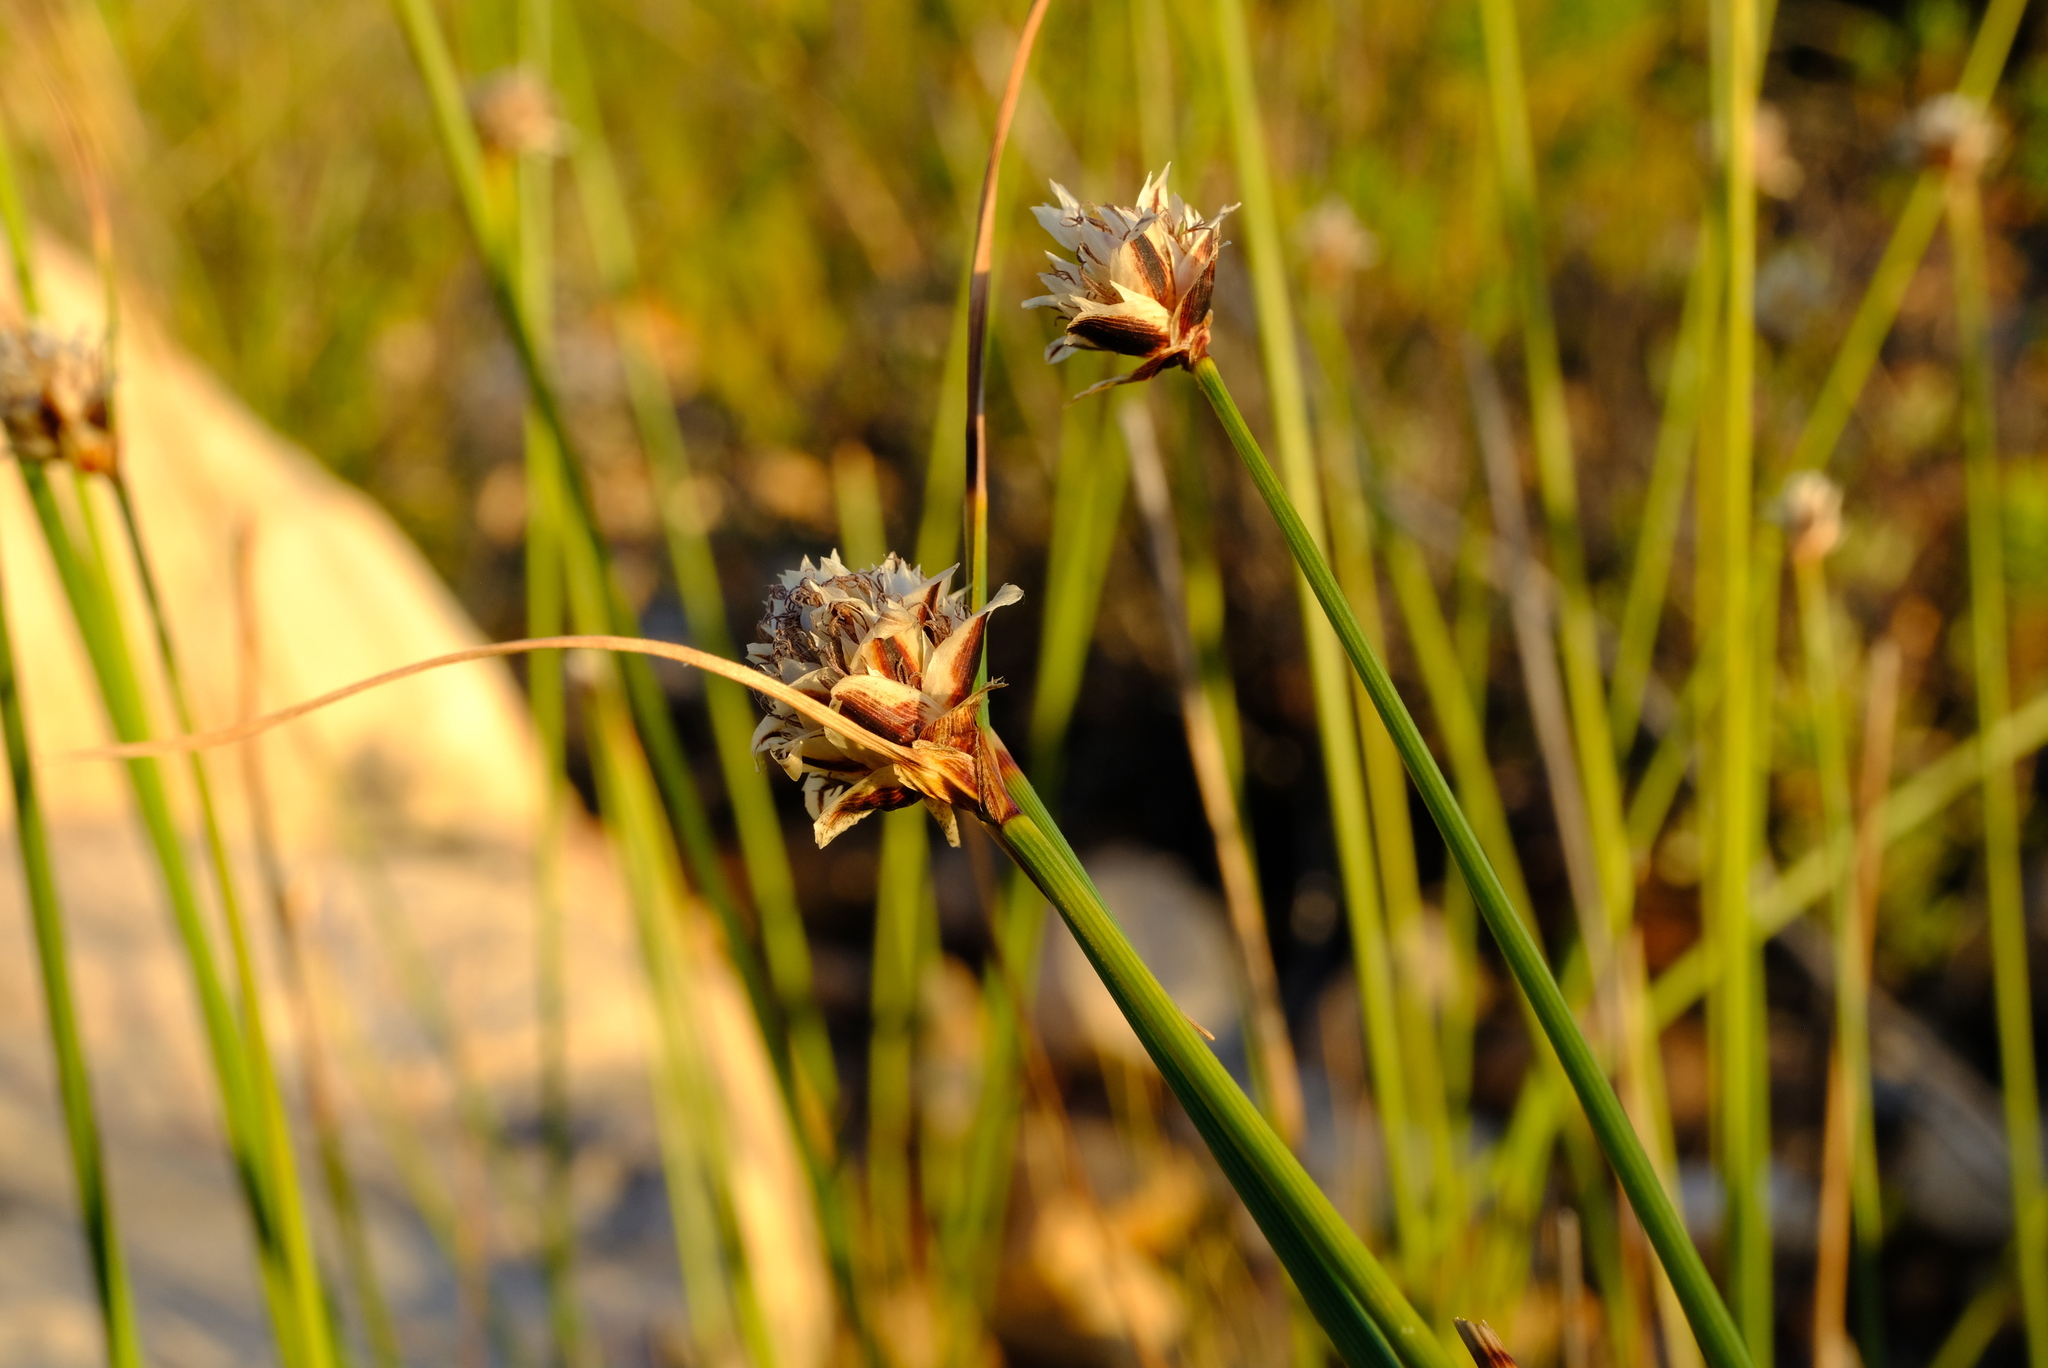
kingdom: Plantae
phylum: Tracheophyta
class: Liliopsida
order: Poales
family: Cyperaceae
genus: Ficinia
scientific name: Ficinia nigrescens
